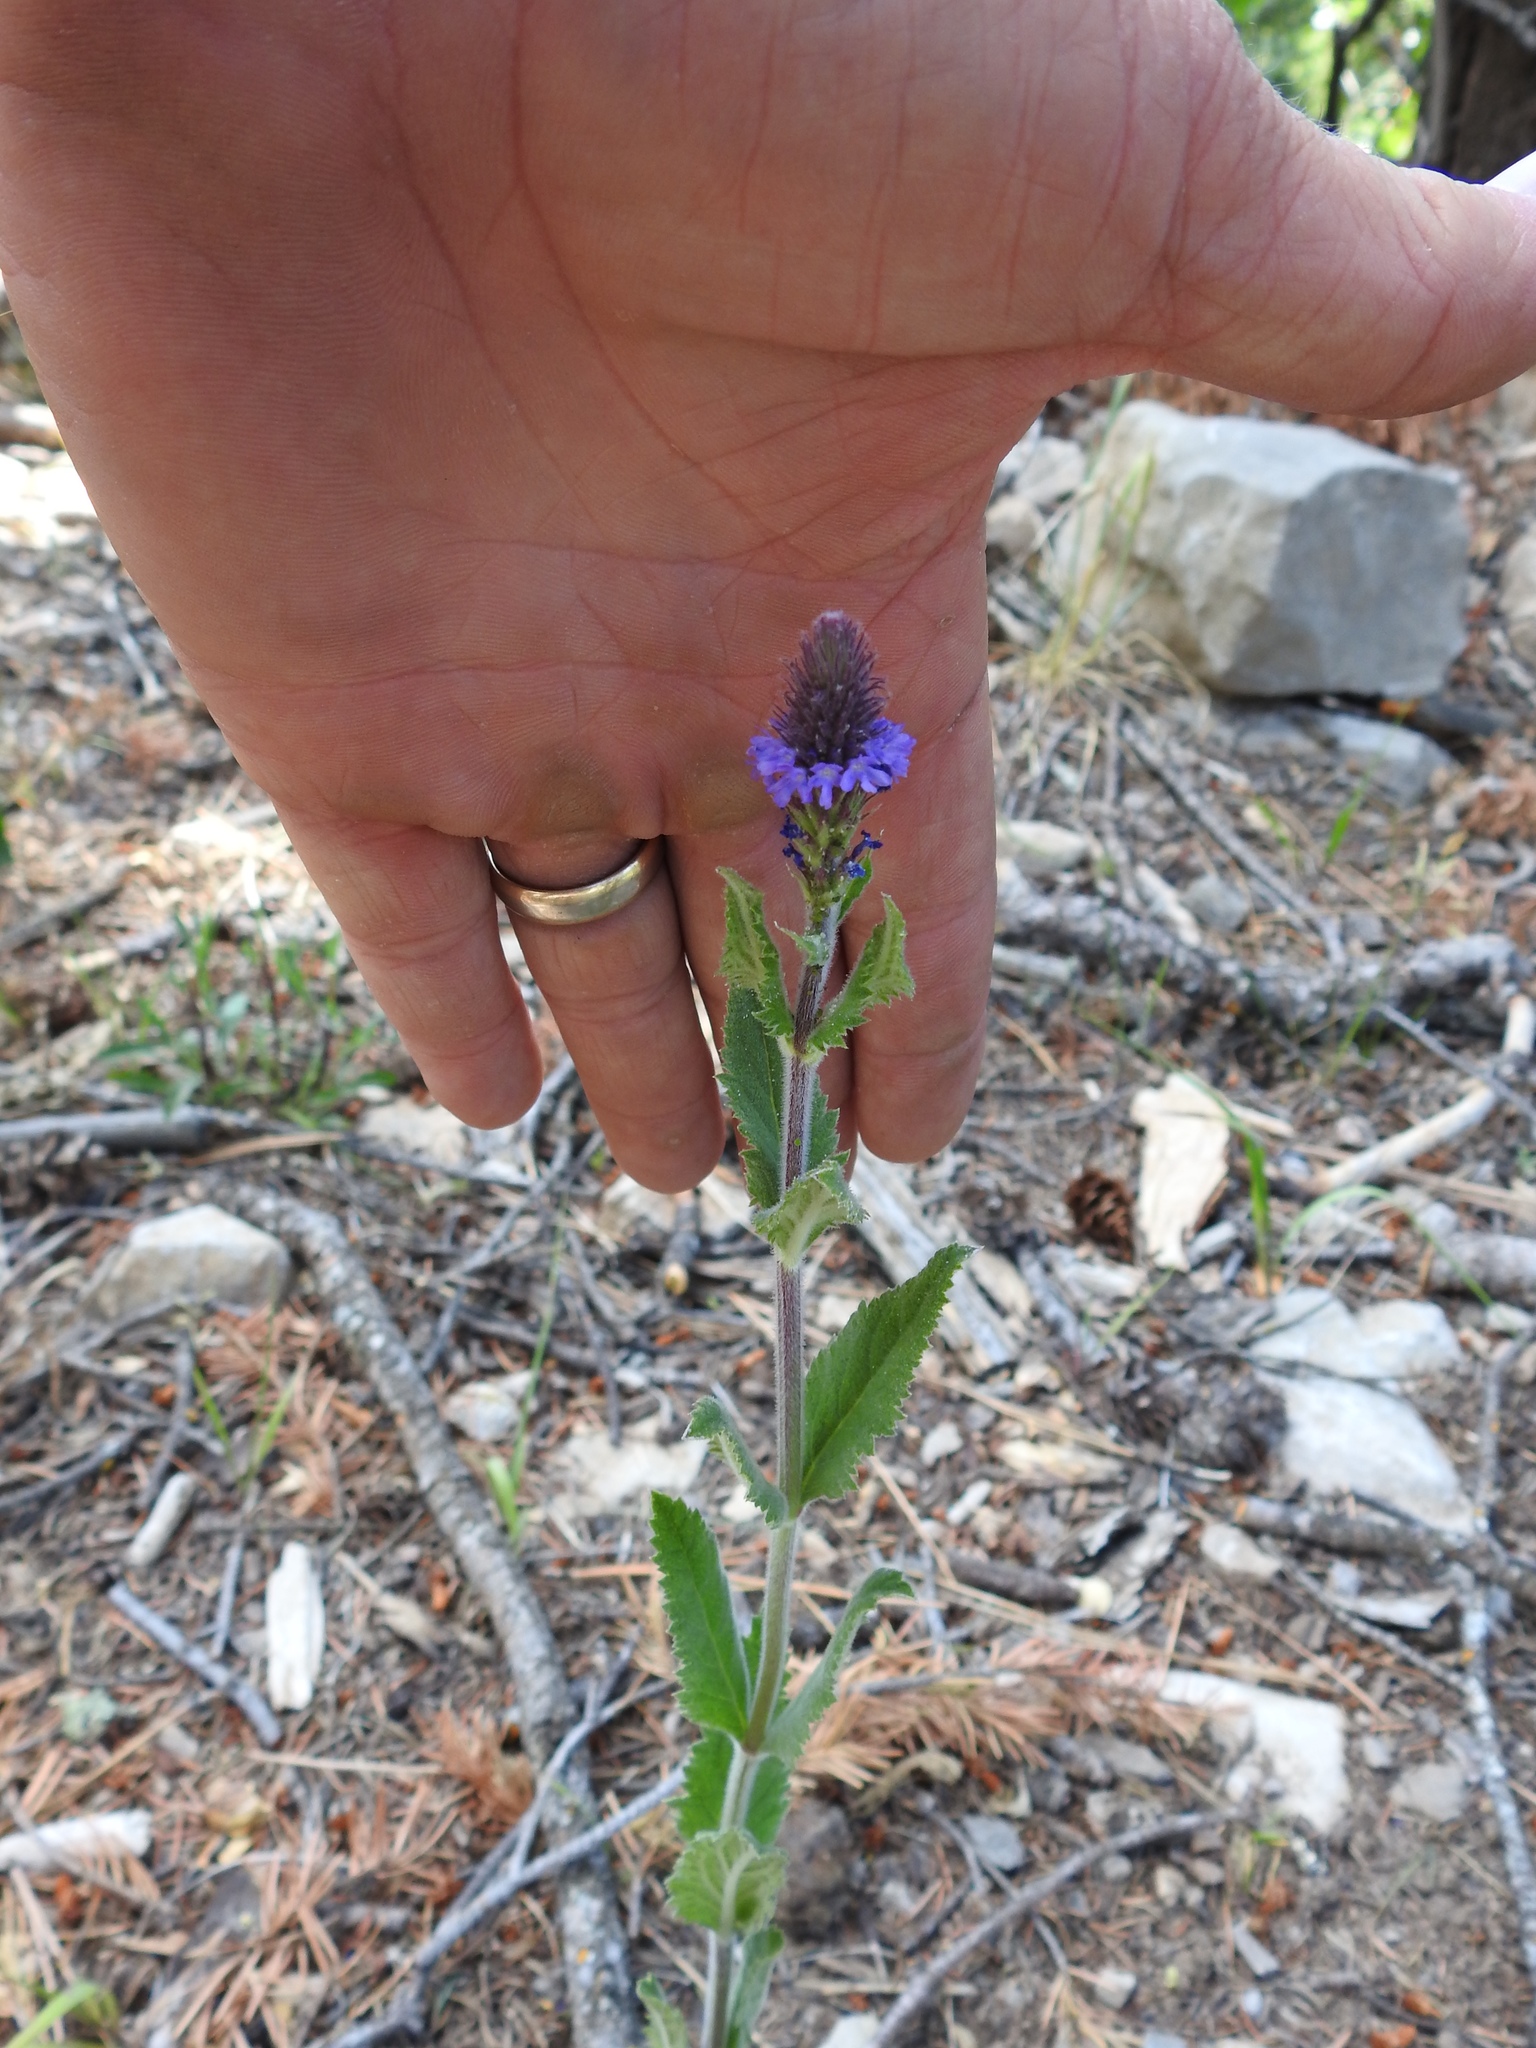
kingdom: Plantae
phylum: Tracheophyta
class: Magnoliopsida
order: Lamiales
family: Verbenaceae
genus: Verbena
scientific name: Verbena macdougalii
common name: New mexico vervain
